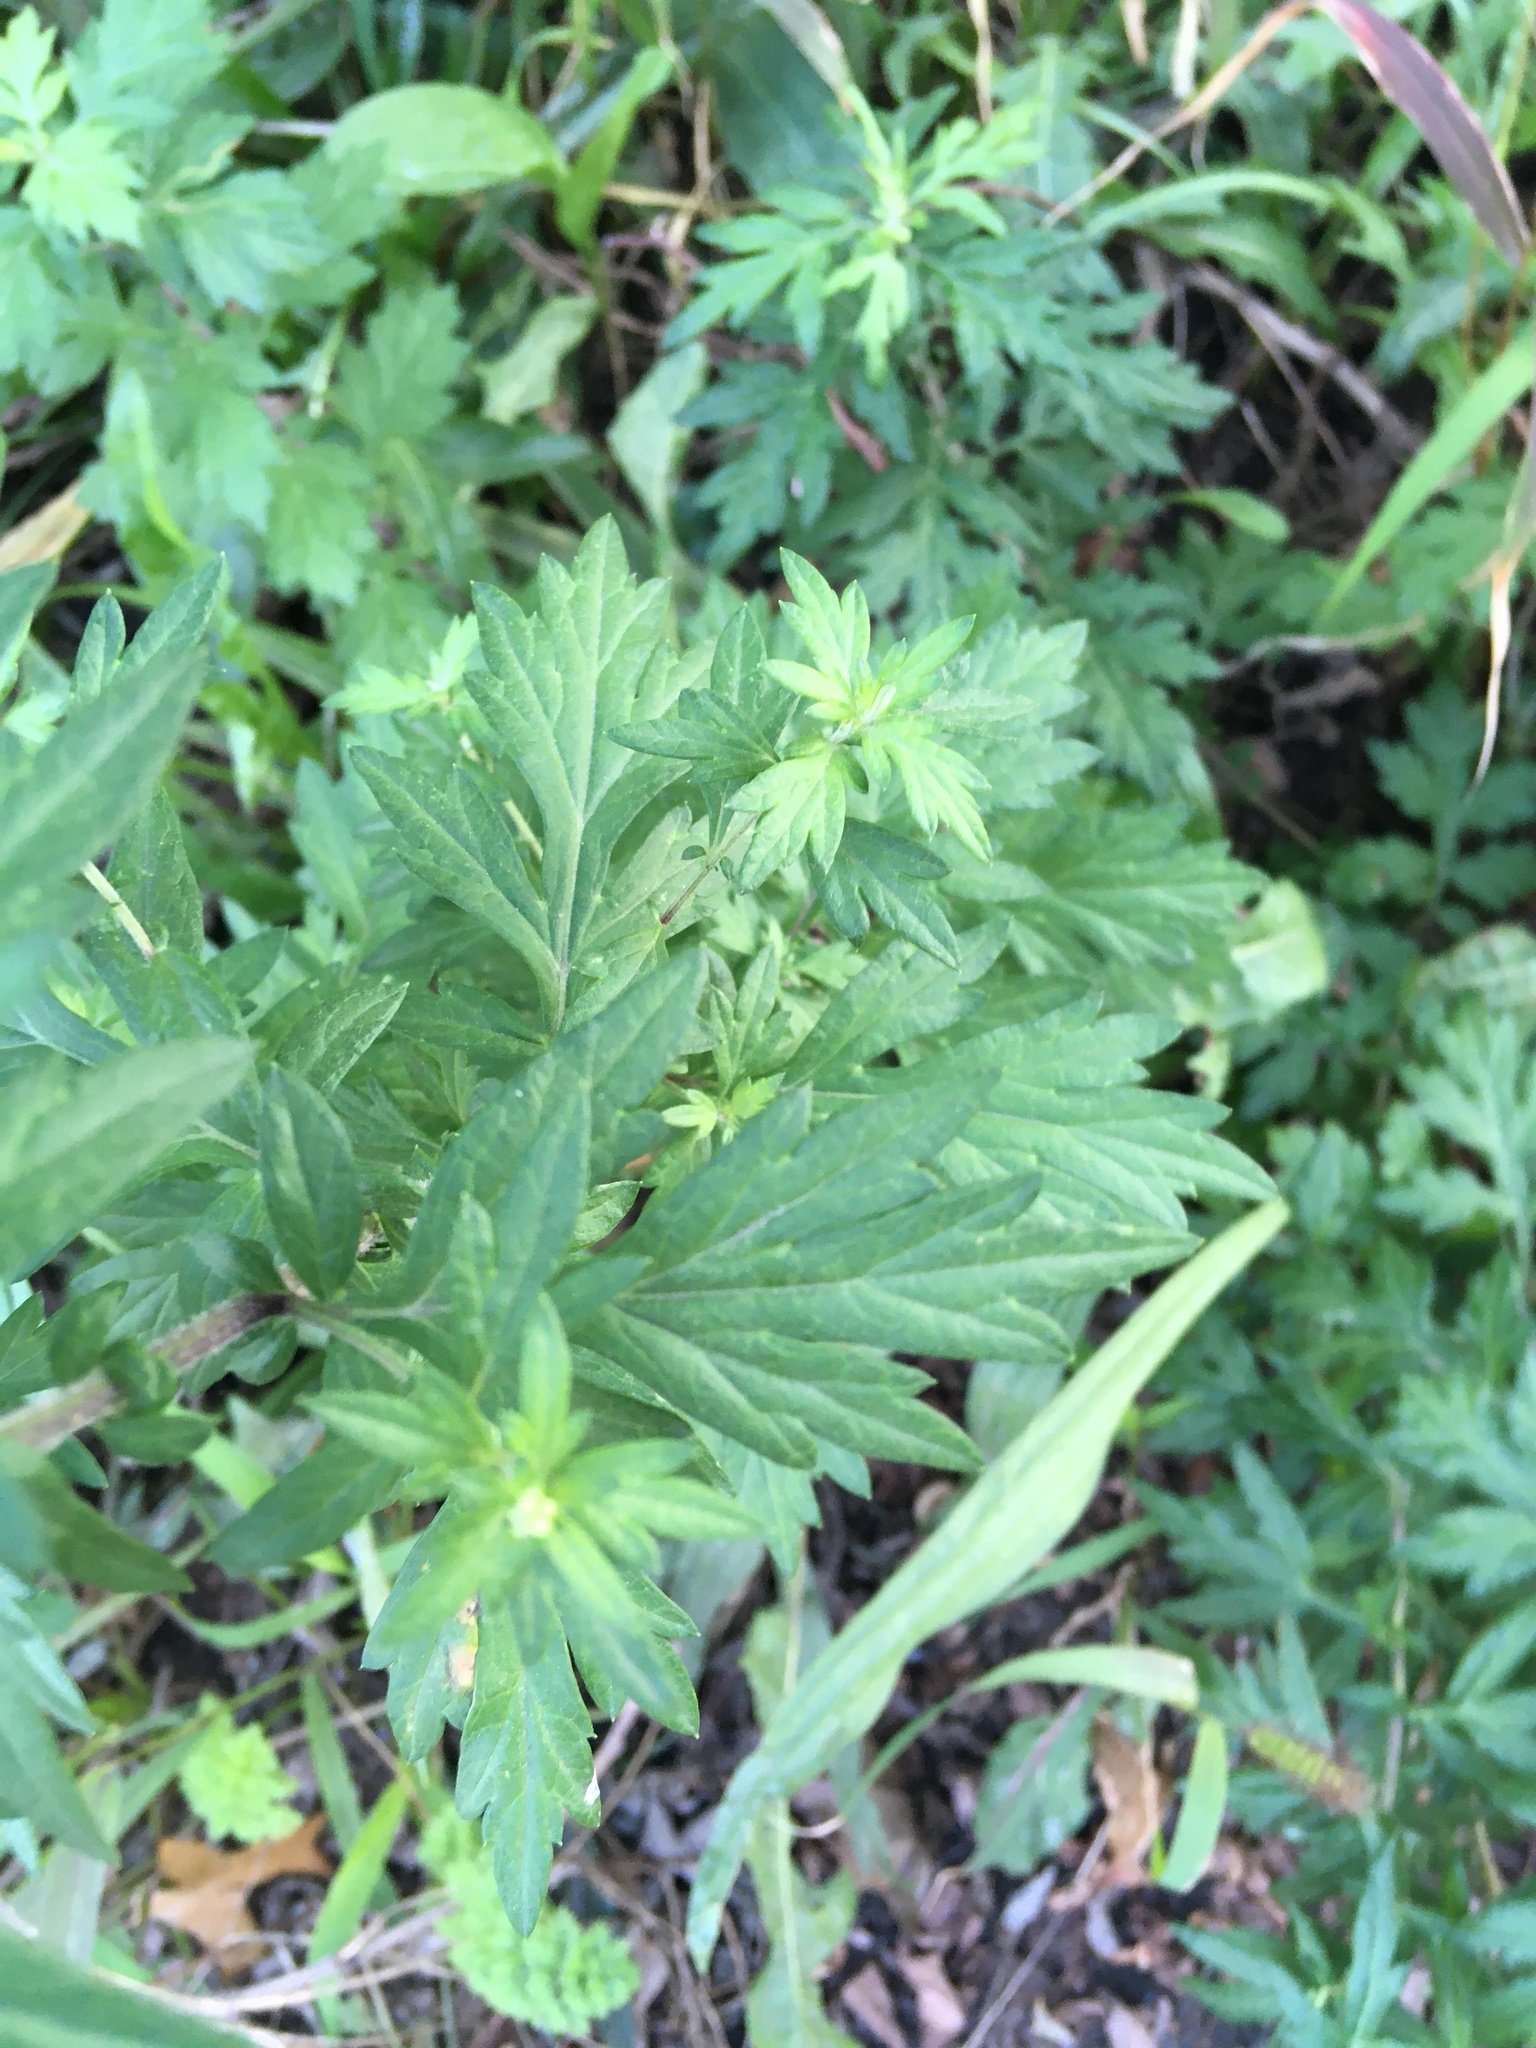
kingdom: Plantae
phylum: Tracheophyta
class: Magnoliopsida
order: Asterales
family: Asteraceae
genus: Artemisia
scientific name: Artemisia vulgaris
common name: Mugwort
